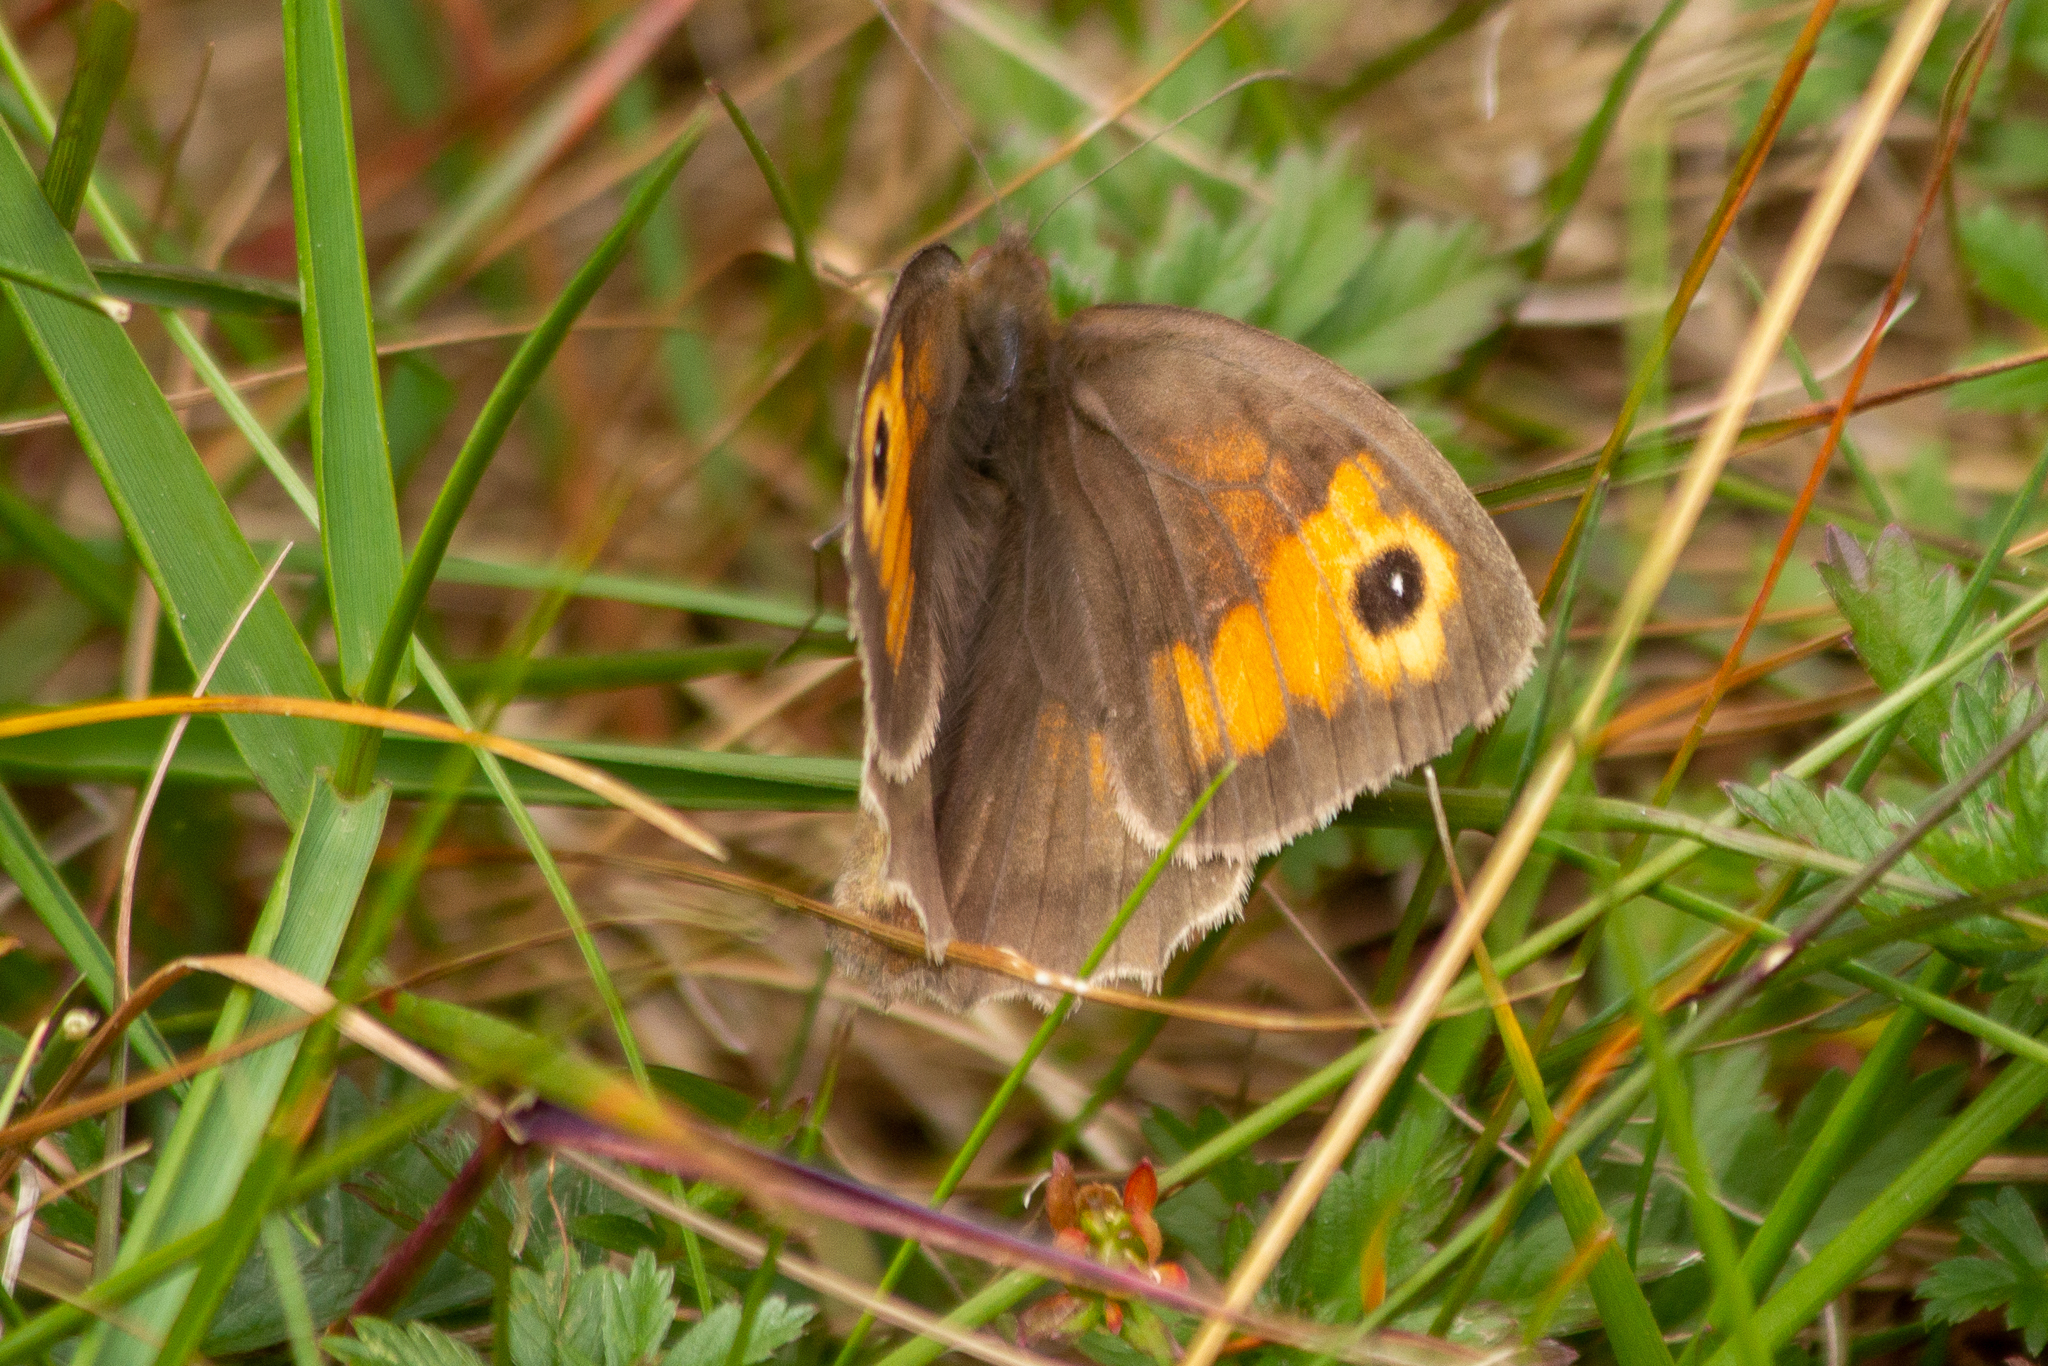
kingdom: Animalia
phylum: Arthropoda
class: Insecta
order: Lepidoptera
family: Nymphalidae
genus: Maniola
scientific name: Maniola jurtina
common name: Meadow brown
